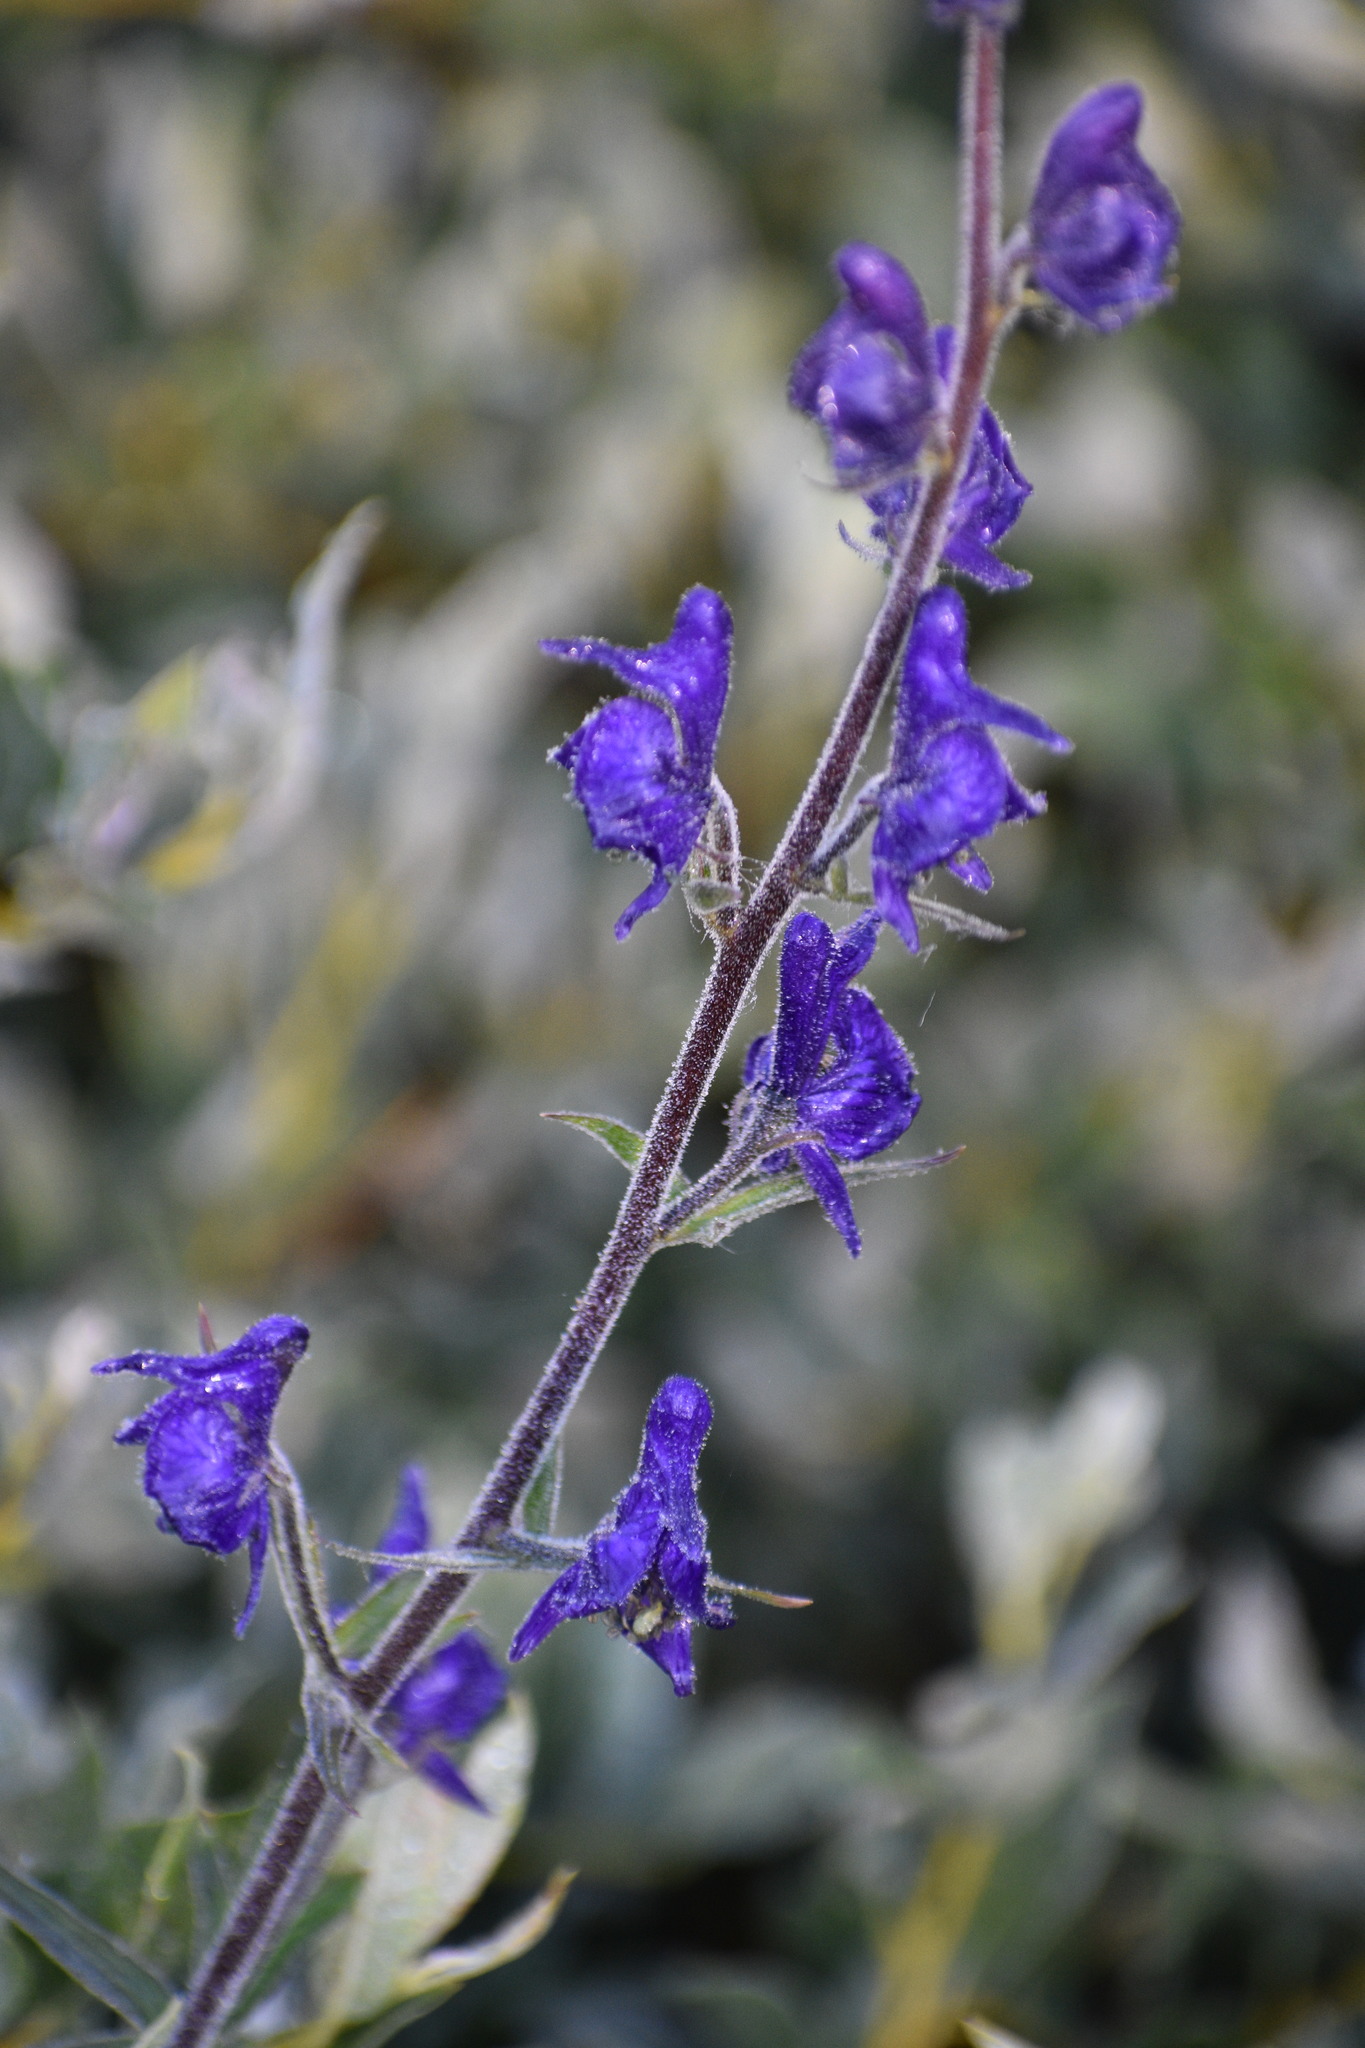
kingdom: Plantae
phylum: Tracheophyta
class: Magnoliopsida
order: Ranunculales
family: Ranunculaceae
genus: Aconitum
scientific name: Aconitum columbianum
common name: Columbia aconite
